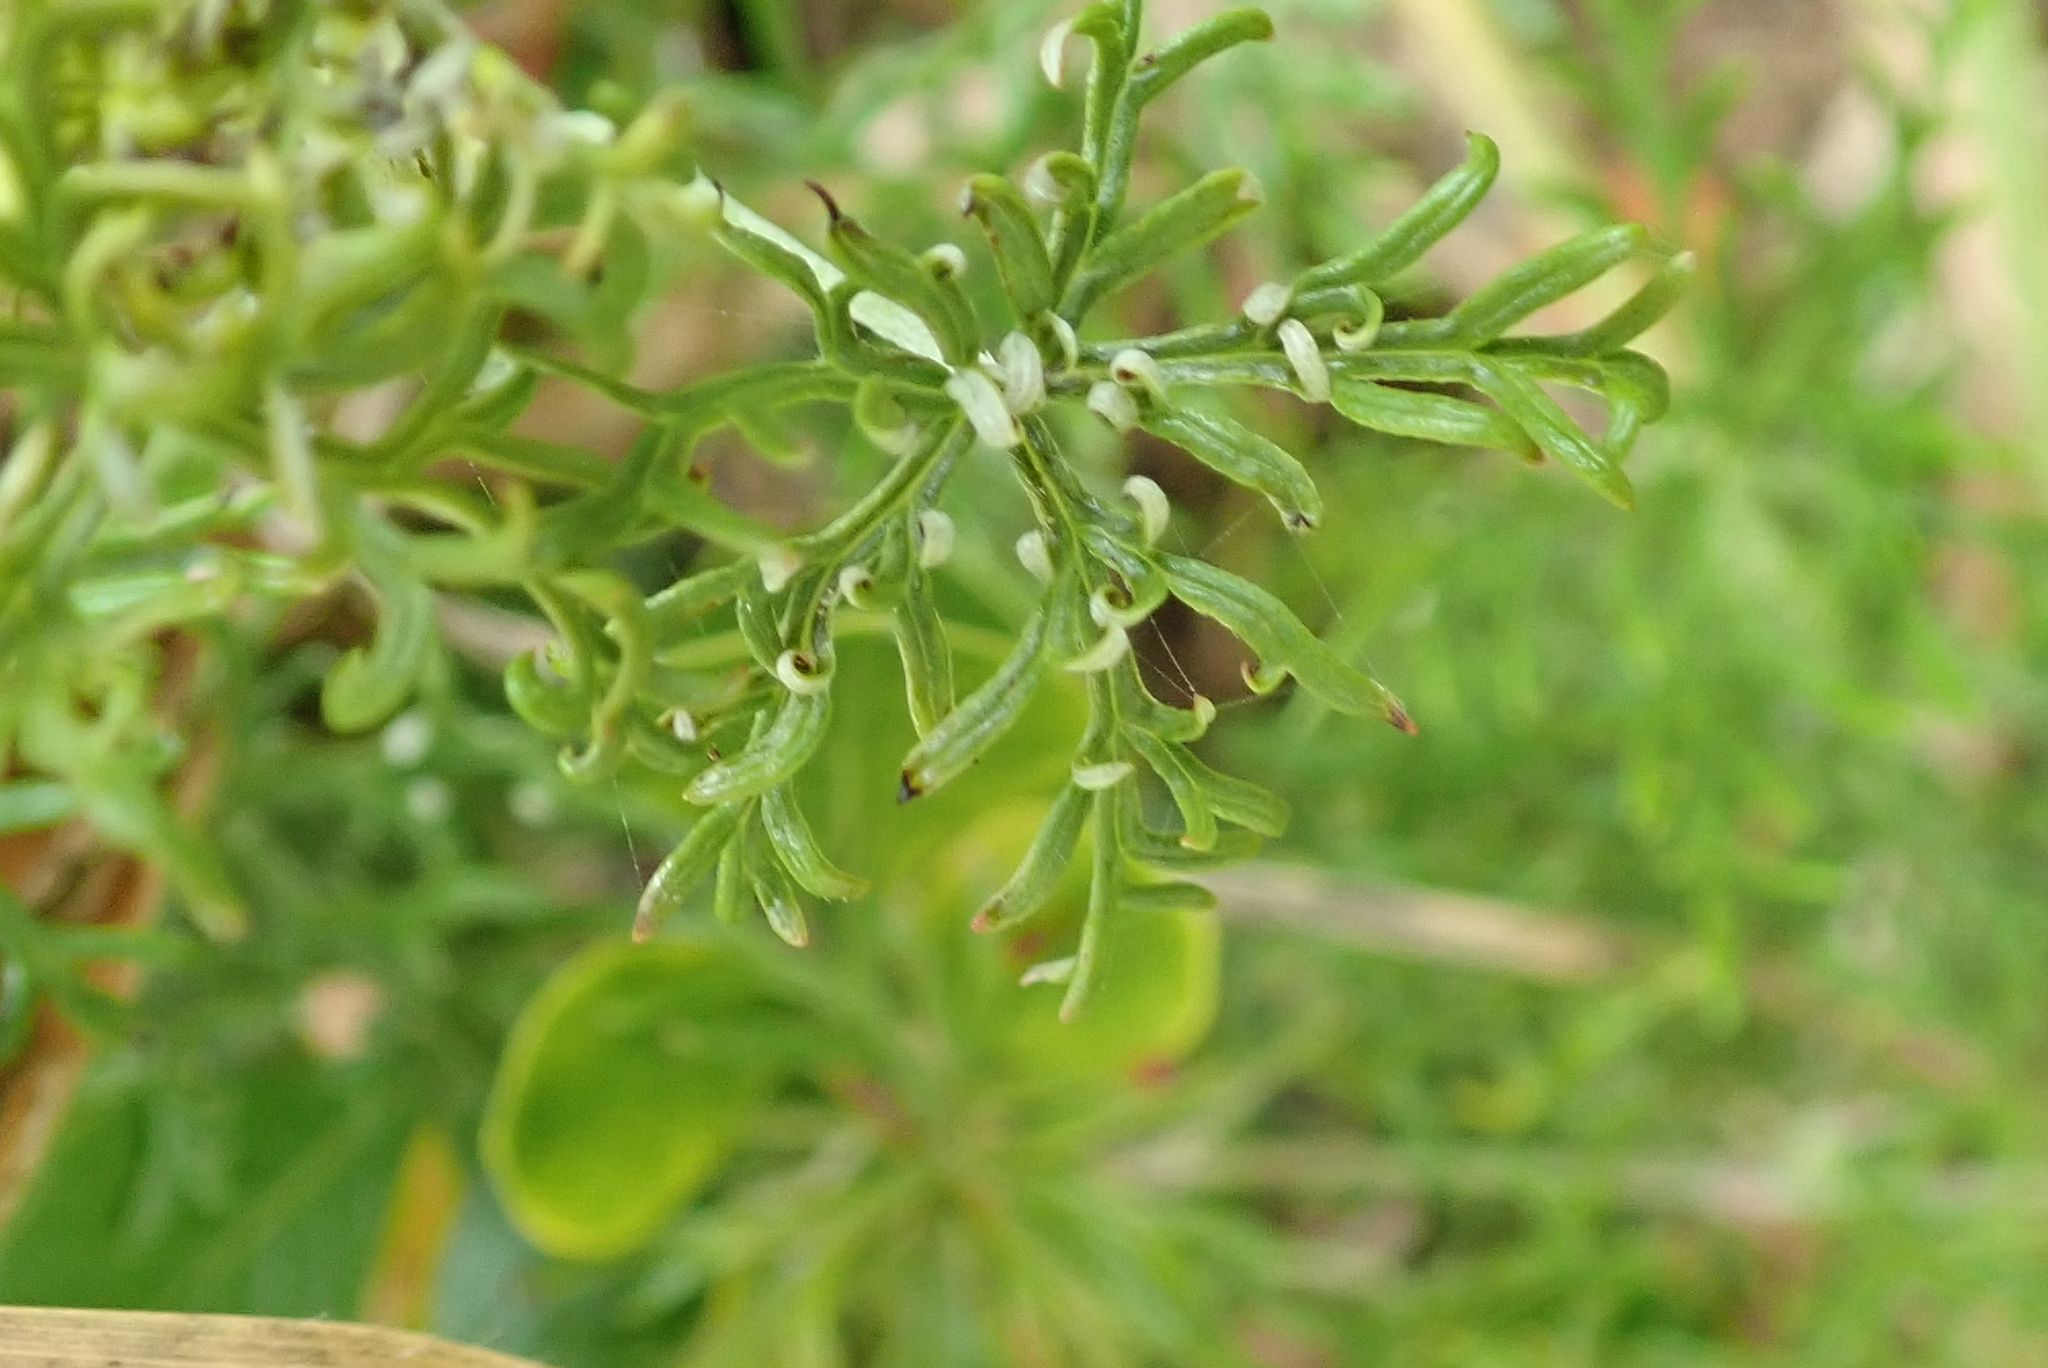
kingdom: Plantae
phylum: Tracheophyta
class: Magnoliopsida
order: Geraniales
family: Geraniaceae
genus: Geranium
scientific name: Geranium incanum
